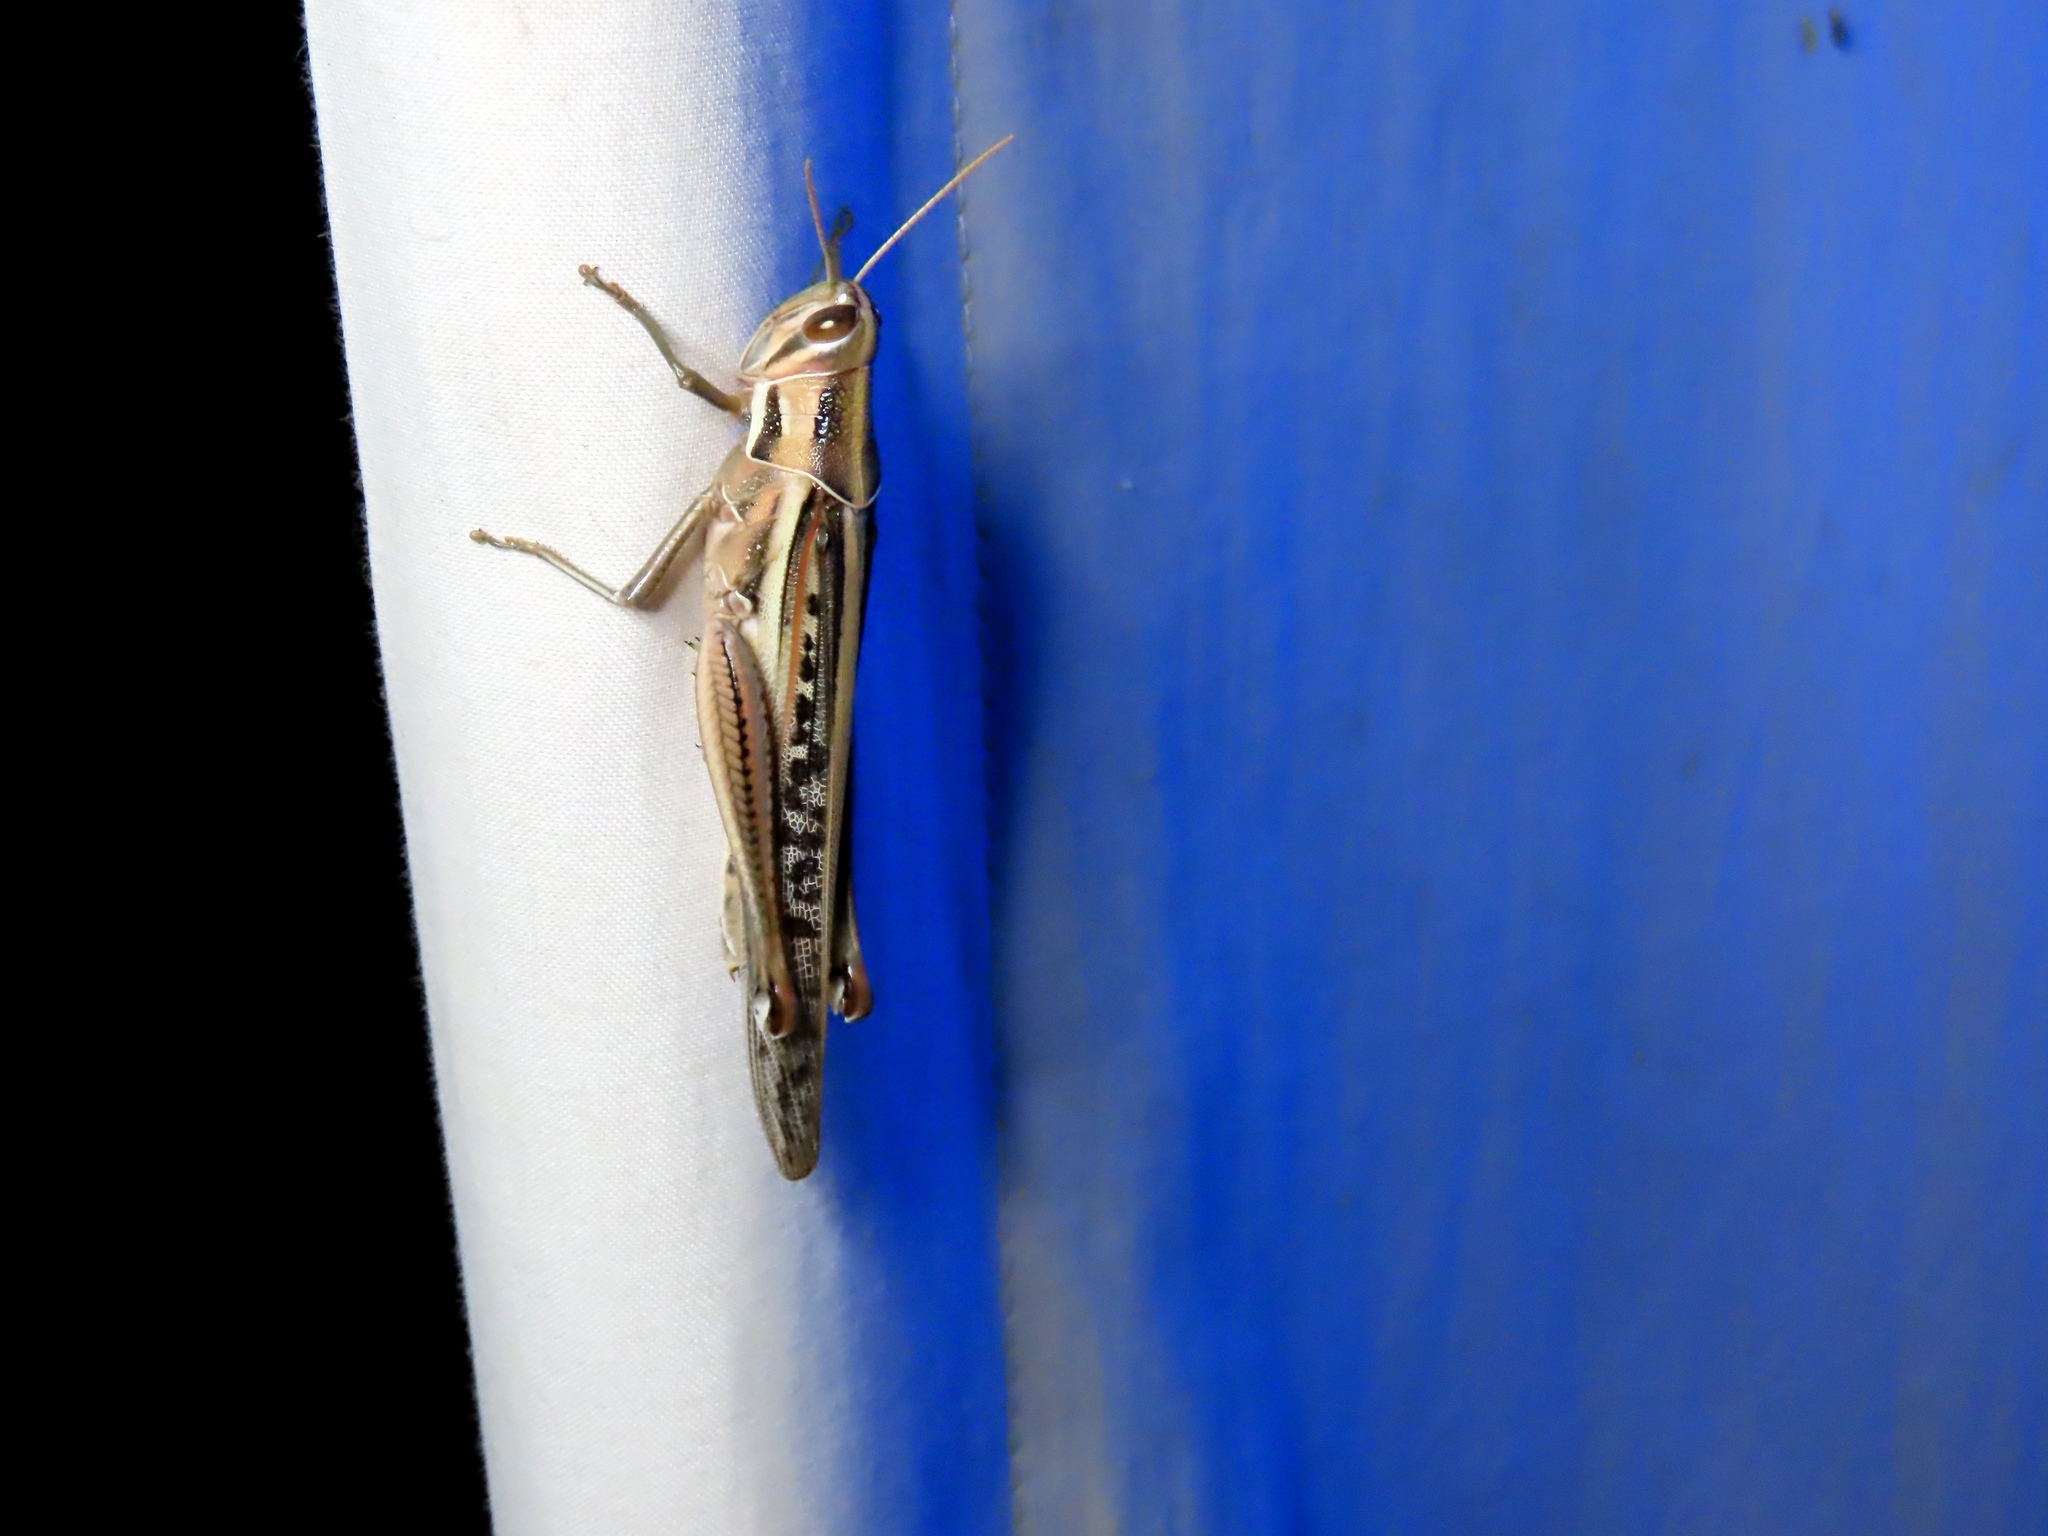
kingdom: Animalia
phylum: Arthropoda
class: Insecta
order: Orthoptera
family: Acrididae
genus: Austracris
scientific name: Austracris guttulosa
